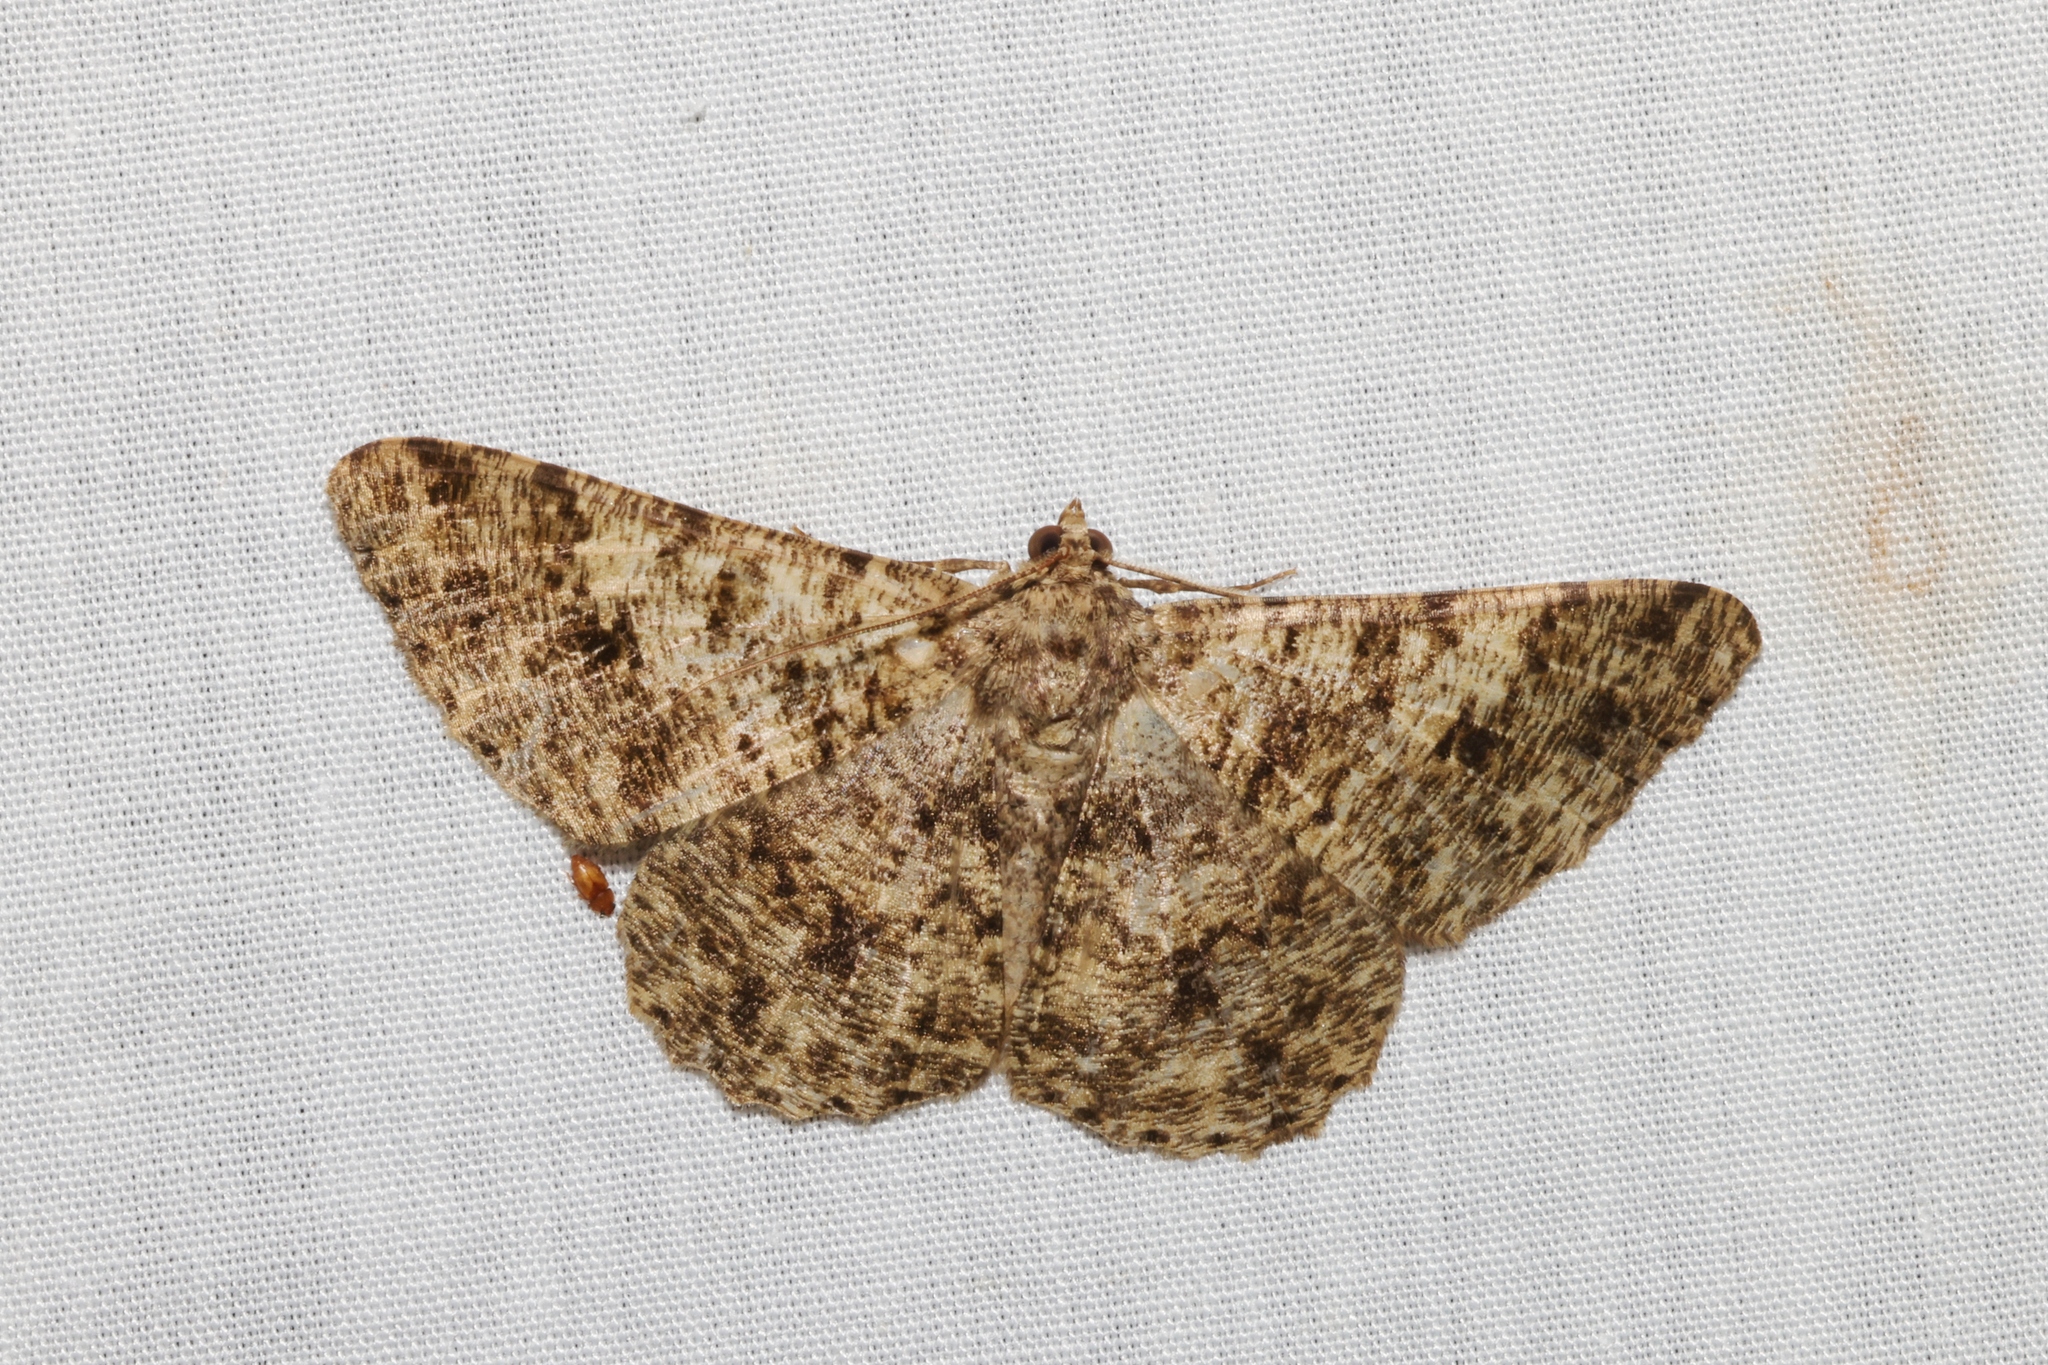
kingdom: Animalia
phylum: Arthropoda
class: Insecta
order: Lepidoptera
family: Geometridae
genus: Racotis
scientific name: Racotis boarmiaria
